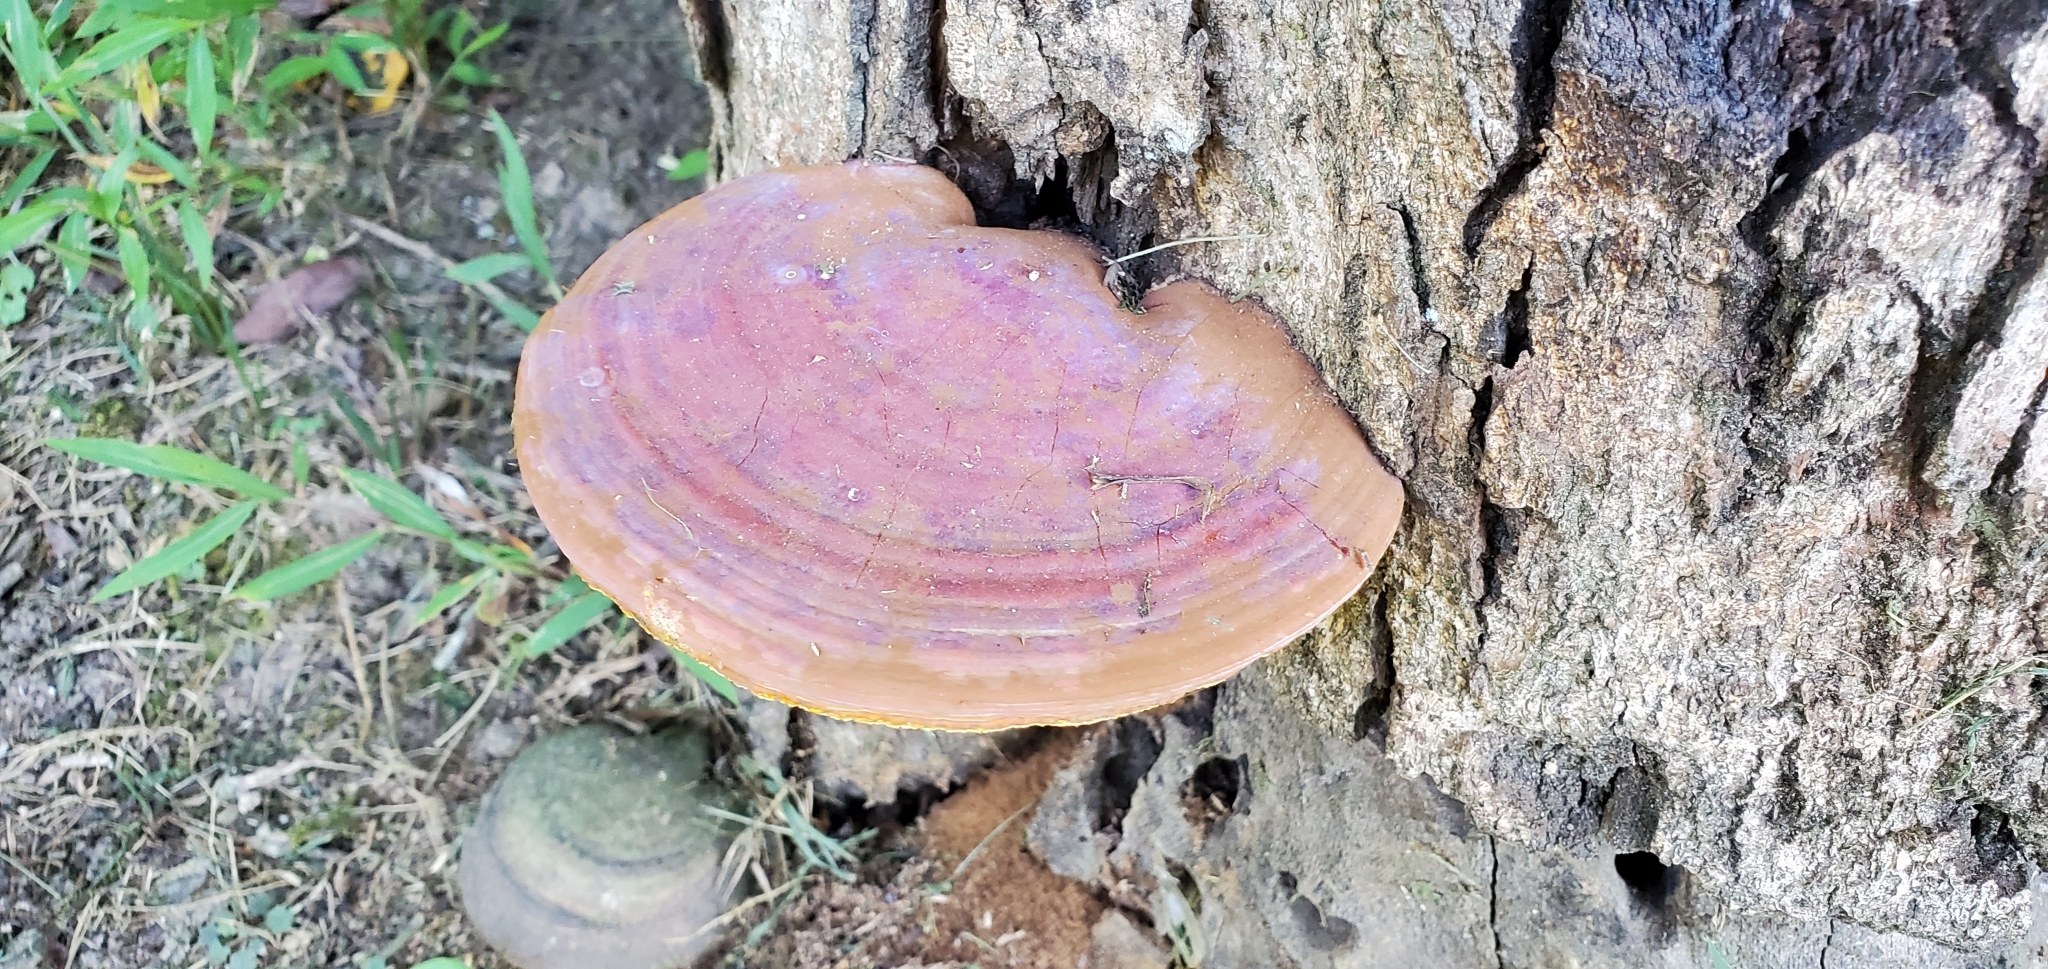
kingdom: Fungi
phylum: Basidiomycota
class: Agaricomycetes
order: Polyporales
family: Polyporaceae
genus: Ganoderma
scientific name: Ganoderma curtisii
